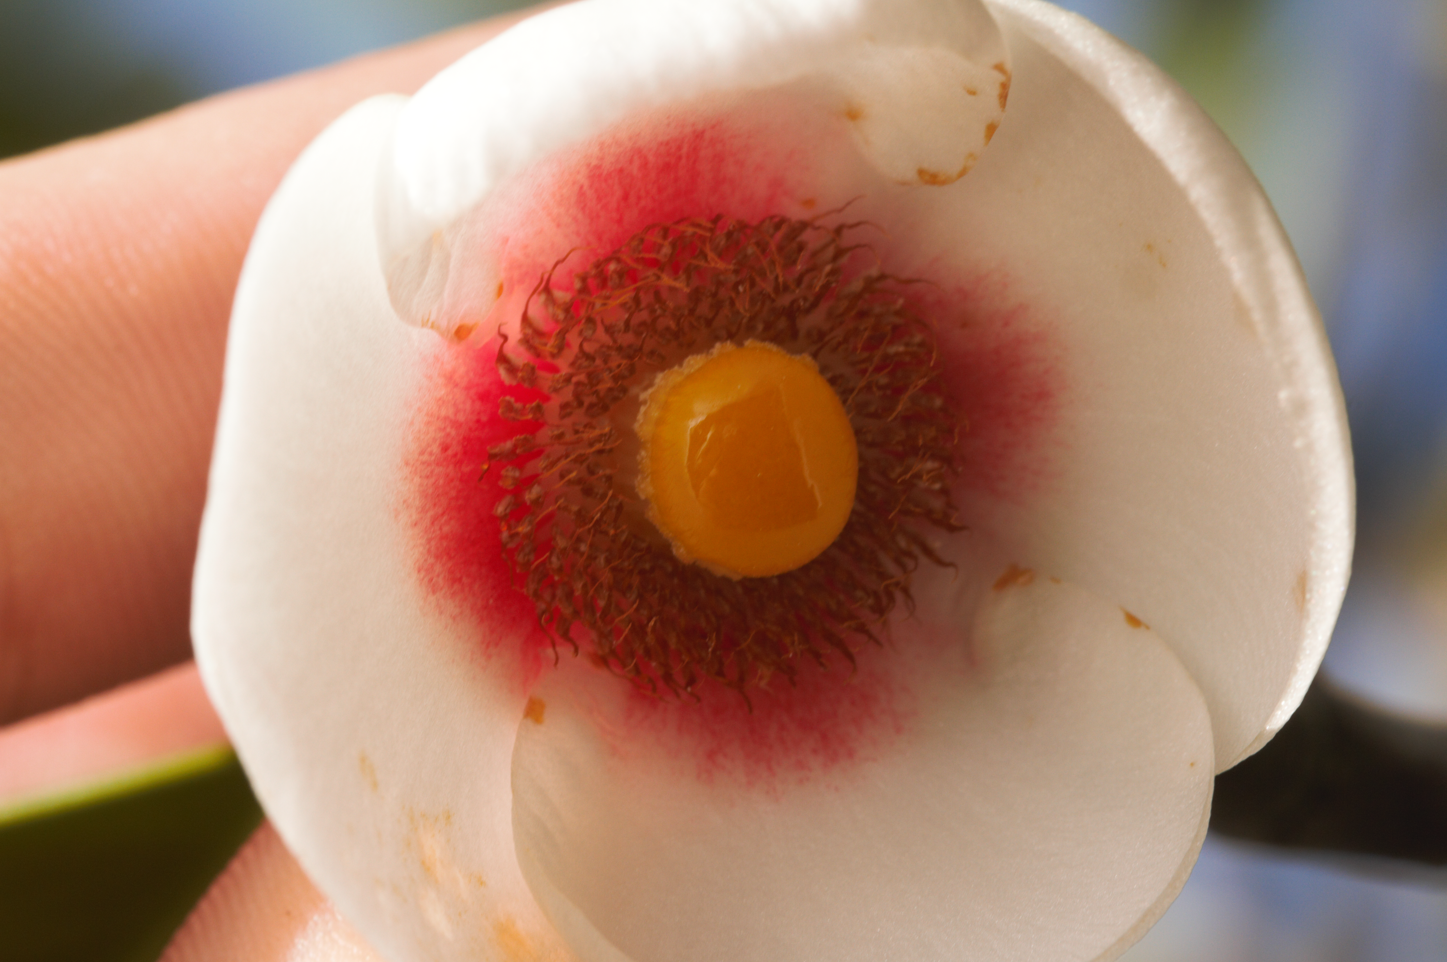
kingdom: Plantae
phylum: Tracheophyta
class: Magnoliopsida
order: Malpighiales
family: Clusiaceae
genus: Clusia
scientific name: Clusia nemorosa
